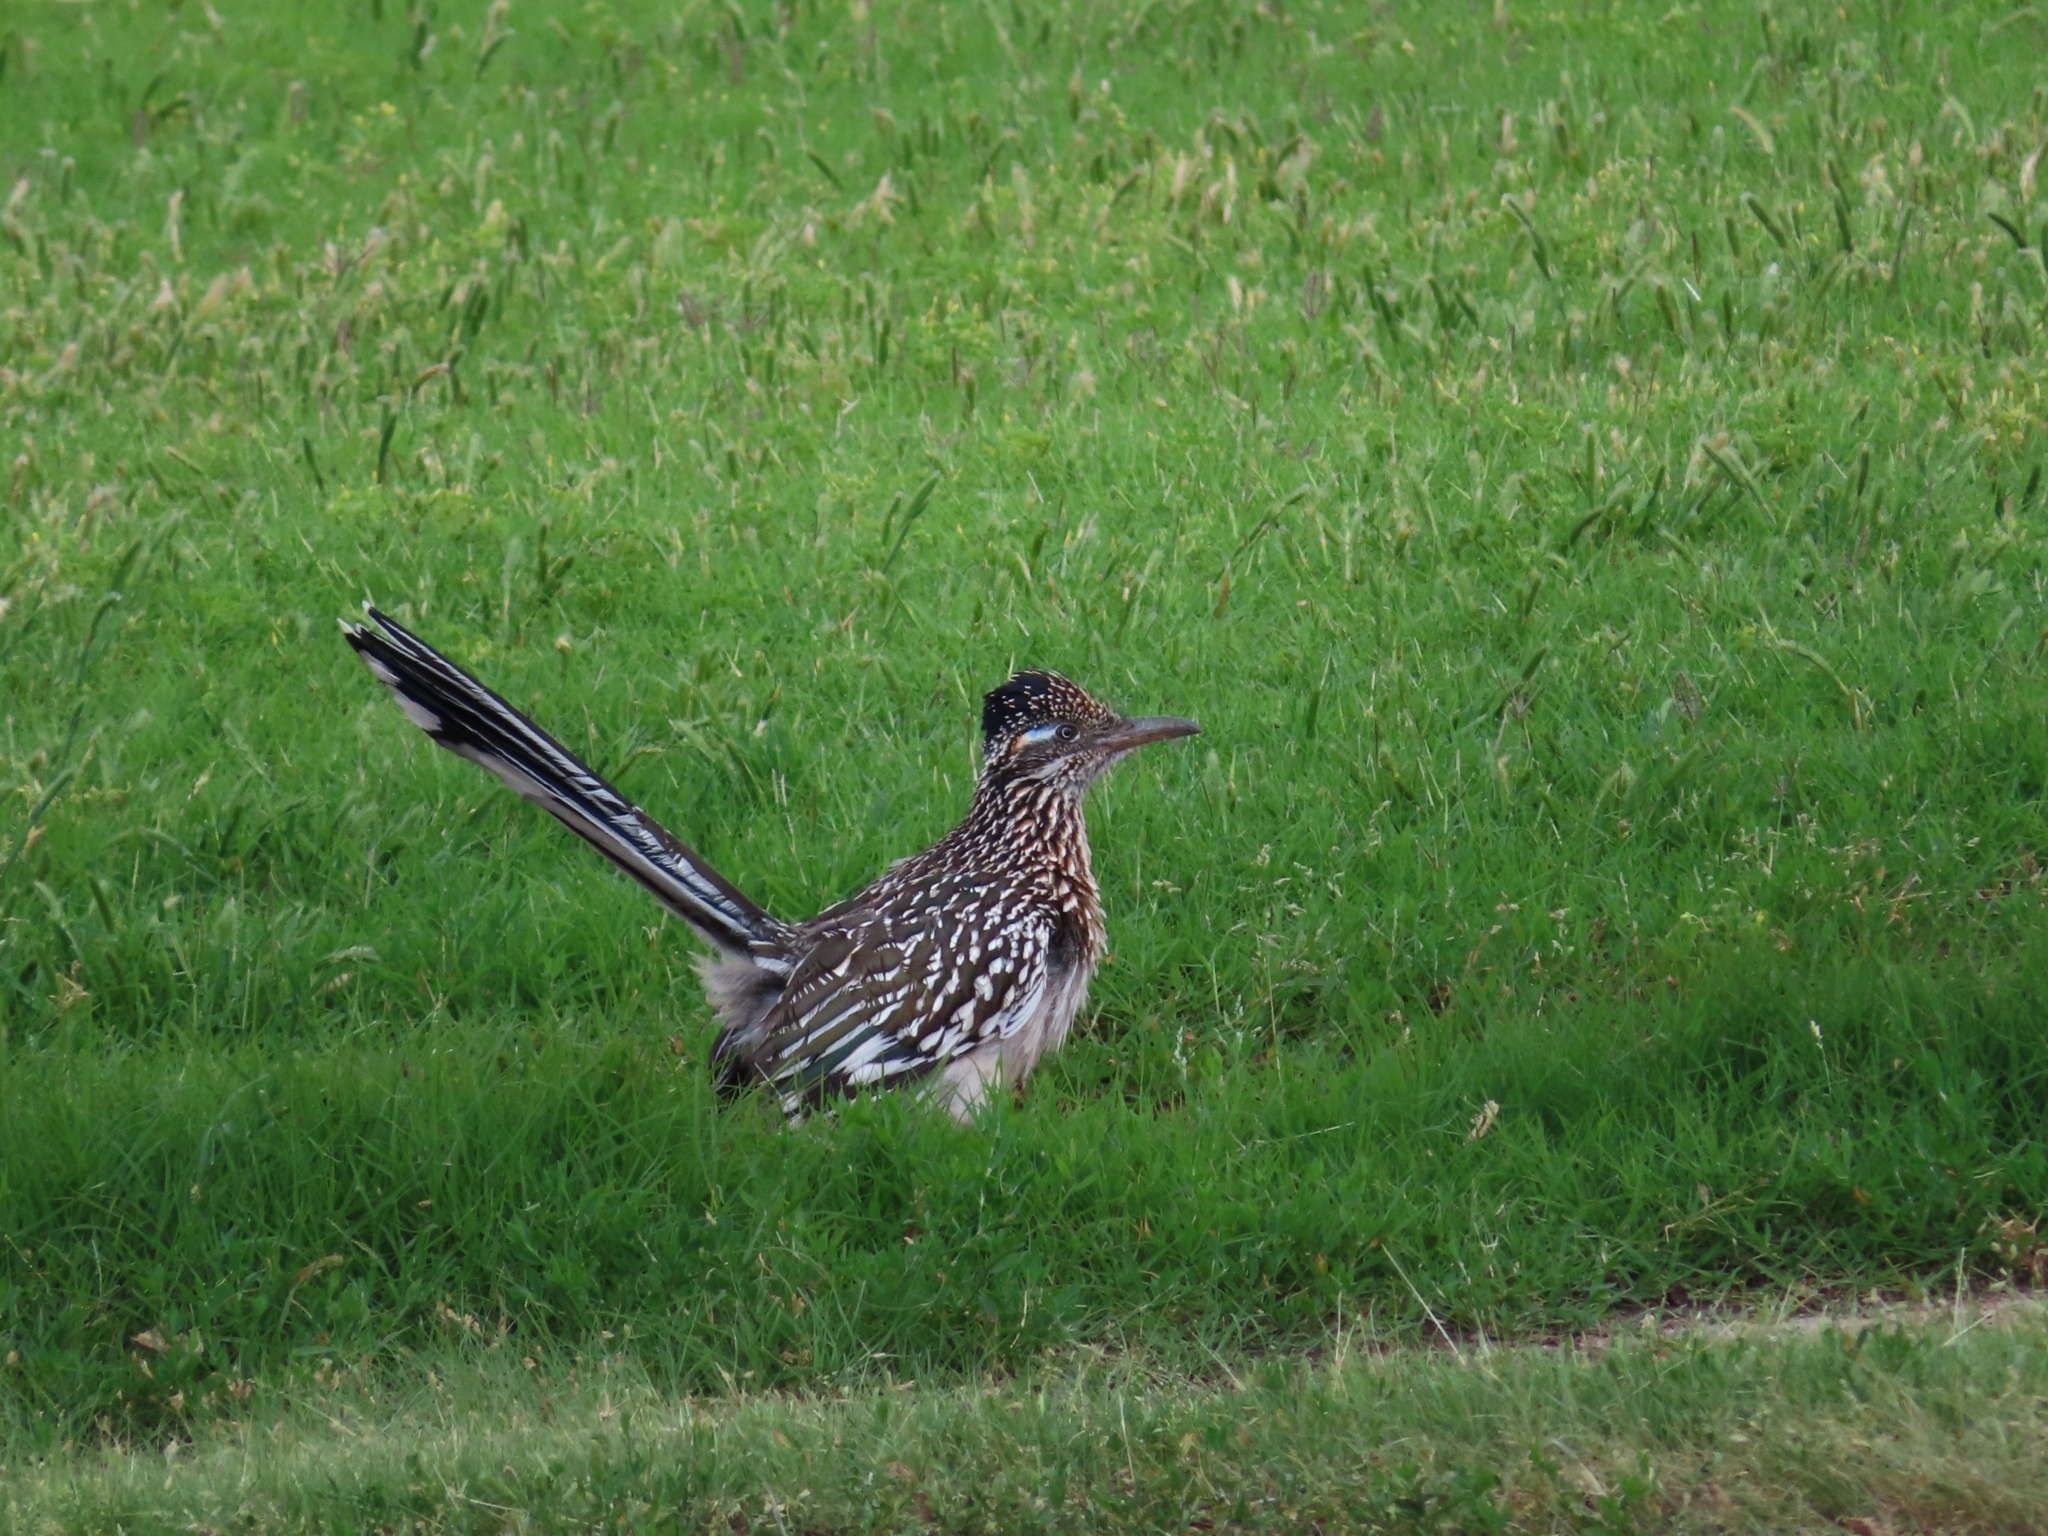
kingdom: Animalia
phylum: Chordata
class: Aves
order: Cuculiformes
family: Cuculidae
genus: Geococcyx
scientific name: Geococcyx californianus
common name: Greater roadrunner
